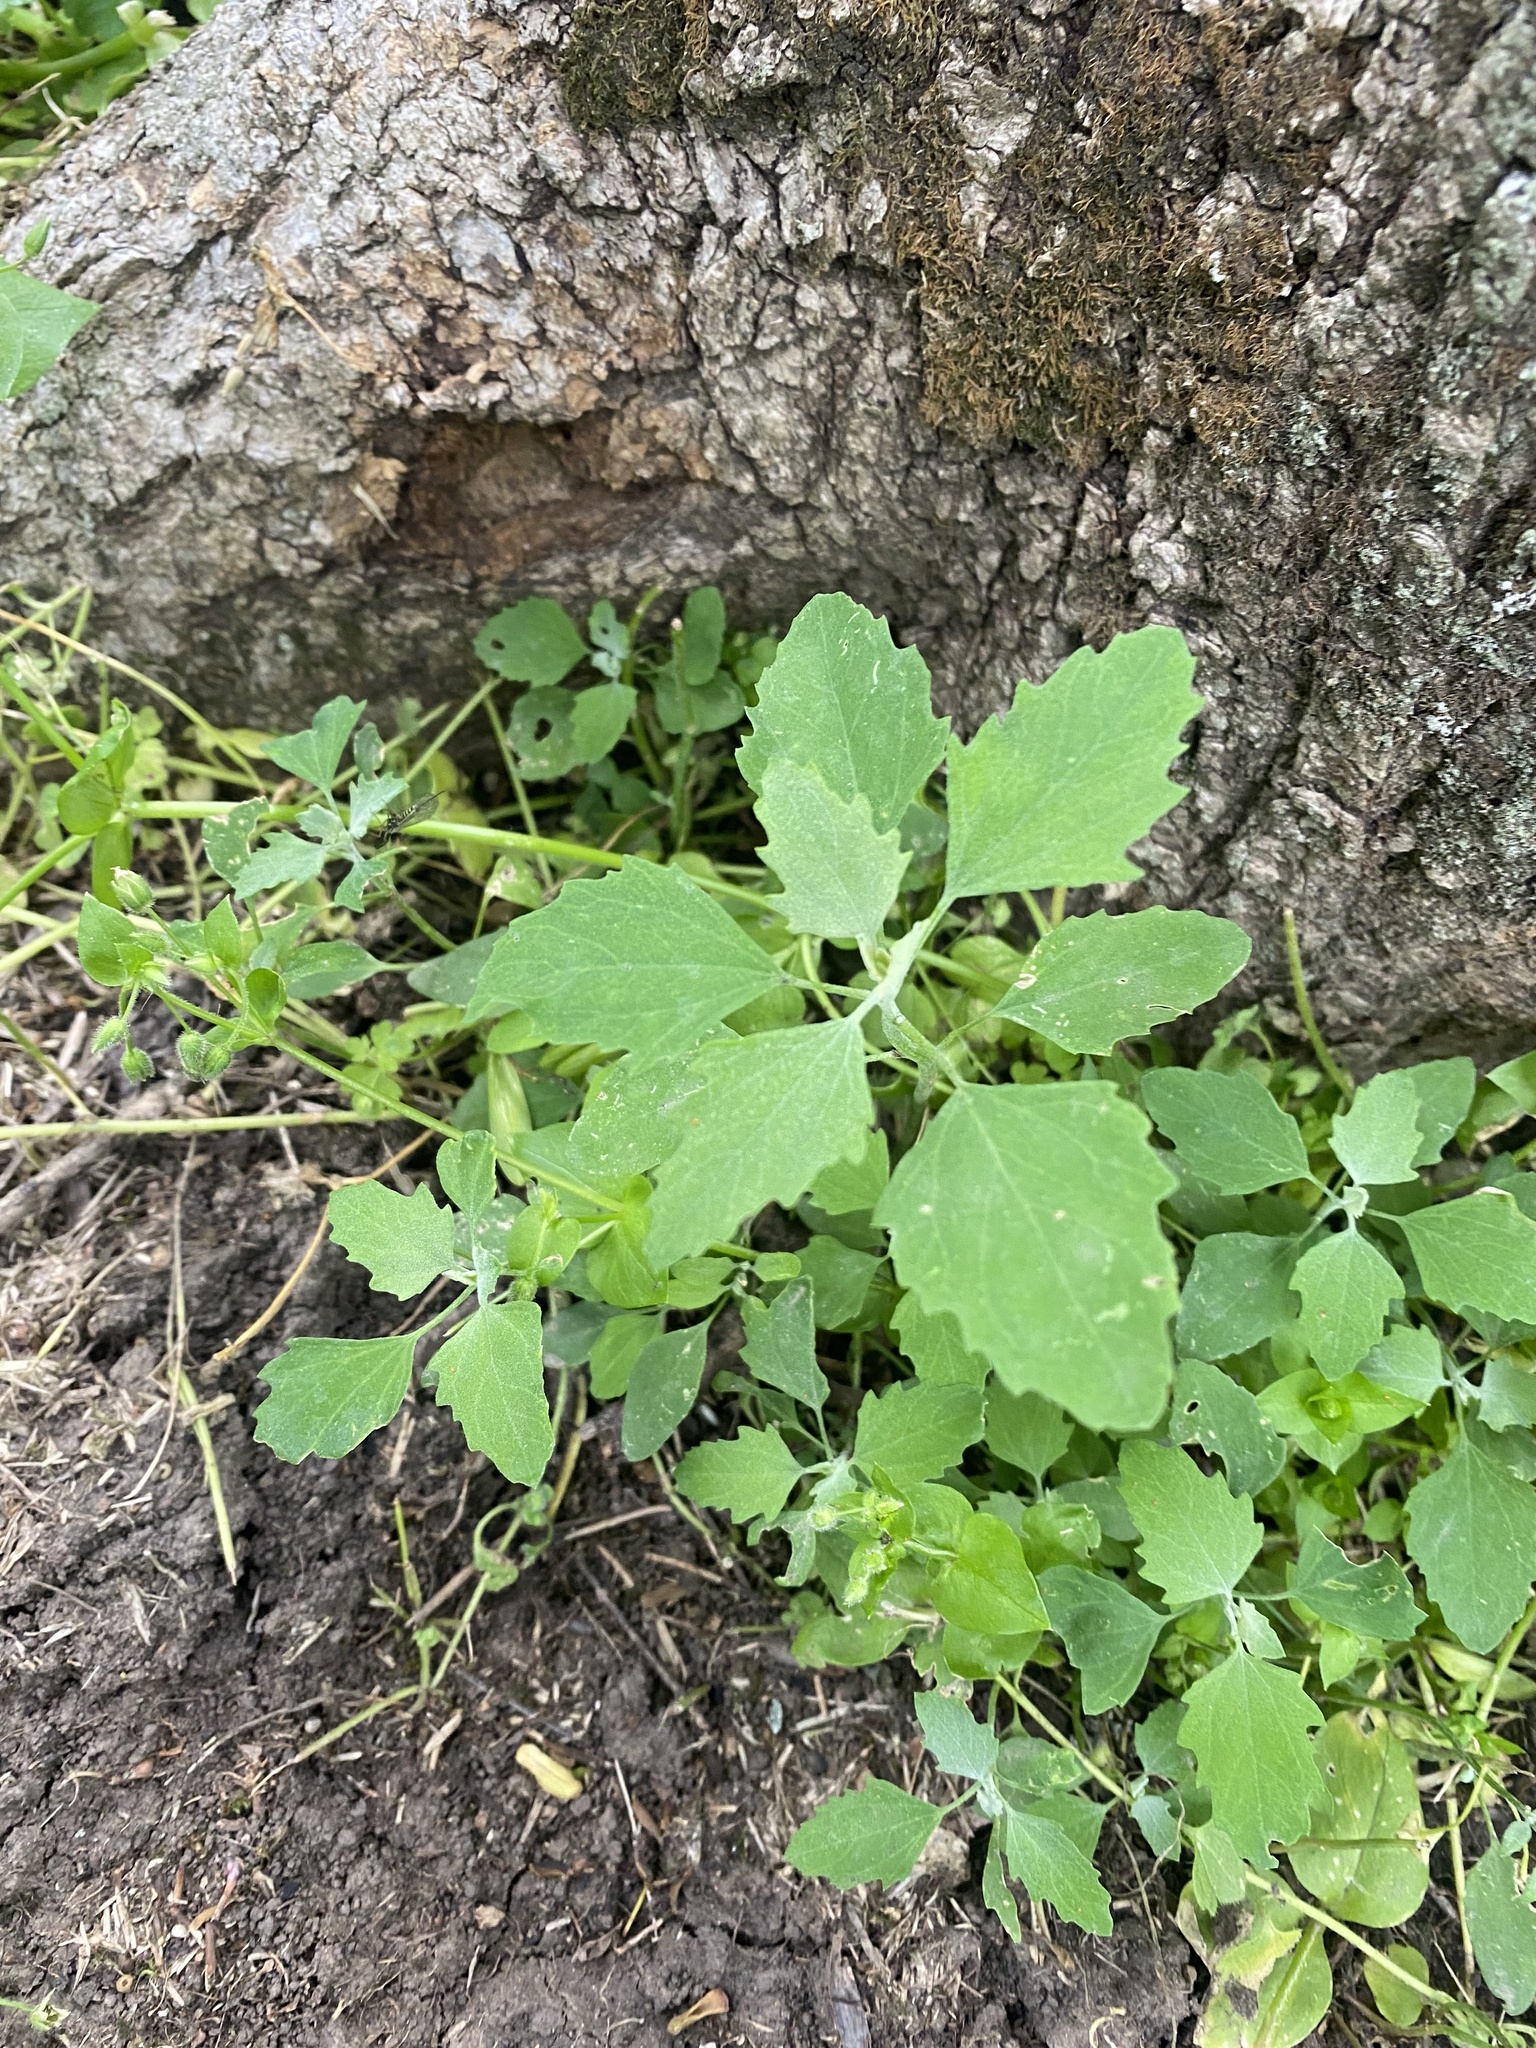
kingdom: Plantae
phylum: Tracheophyta
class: Magnoliopsida
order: Caryophyllales
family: Amaranthaceae
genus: Chenopodium
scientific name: Chenopodium album
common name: Fat-hen
